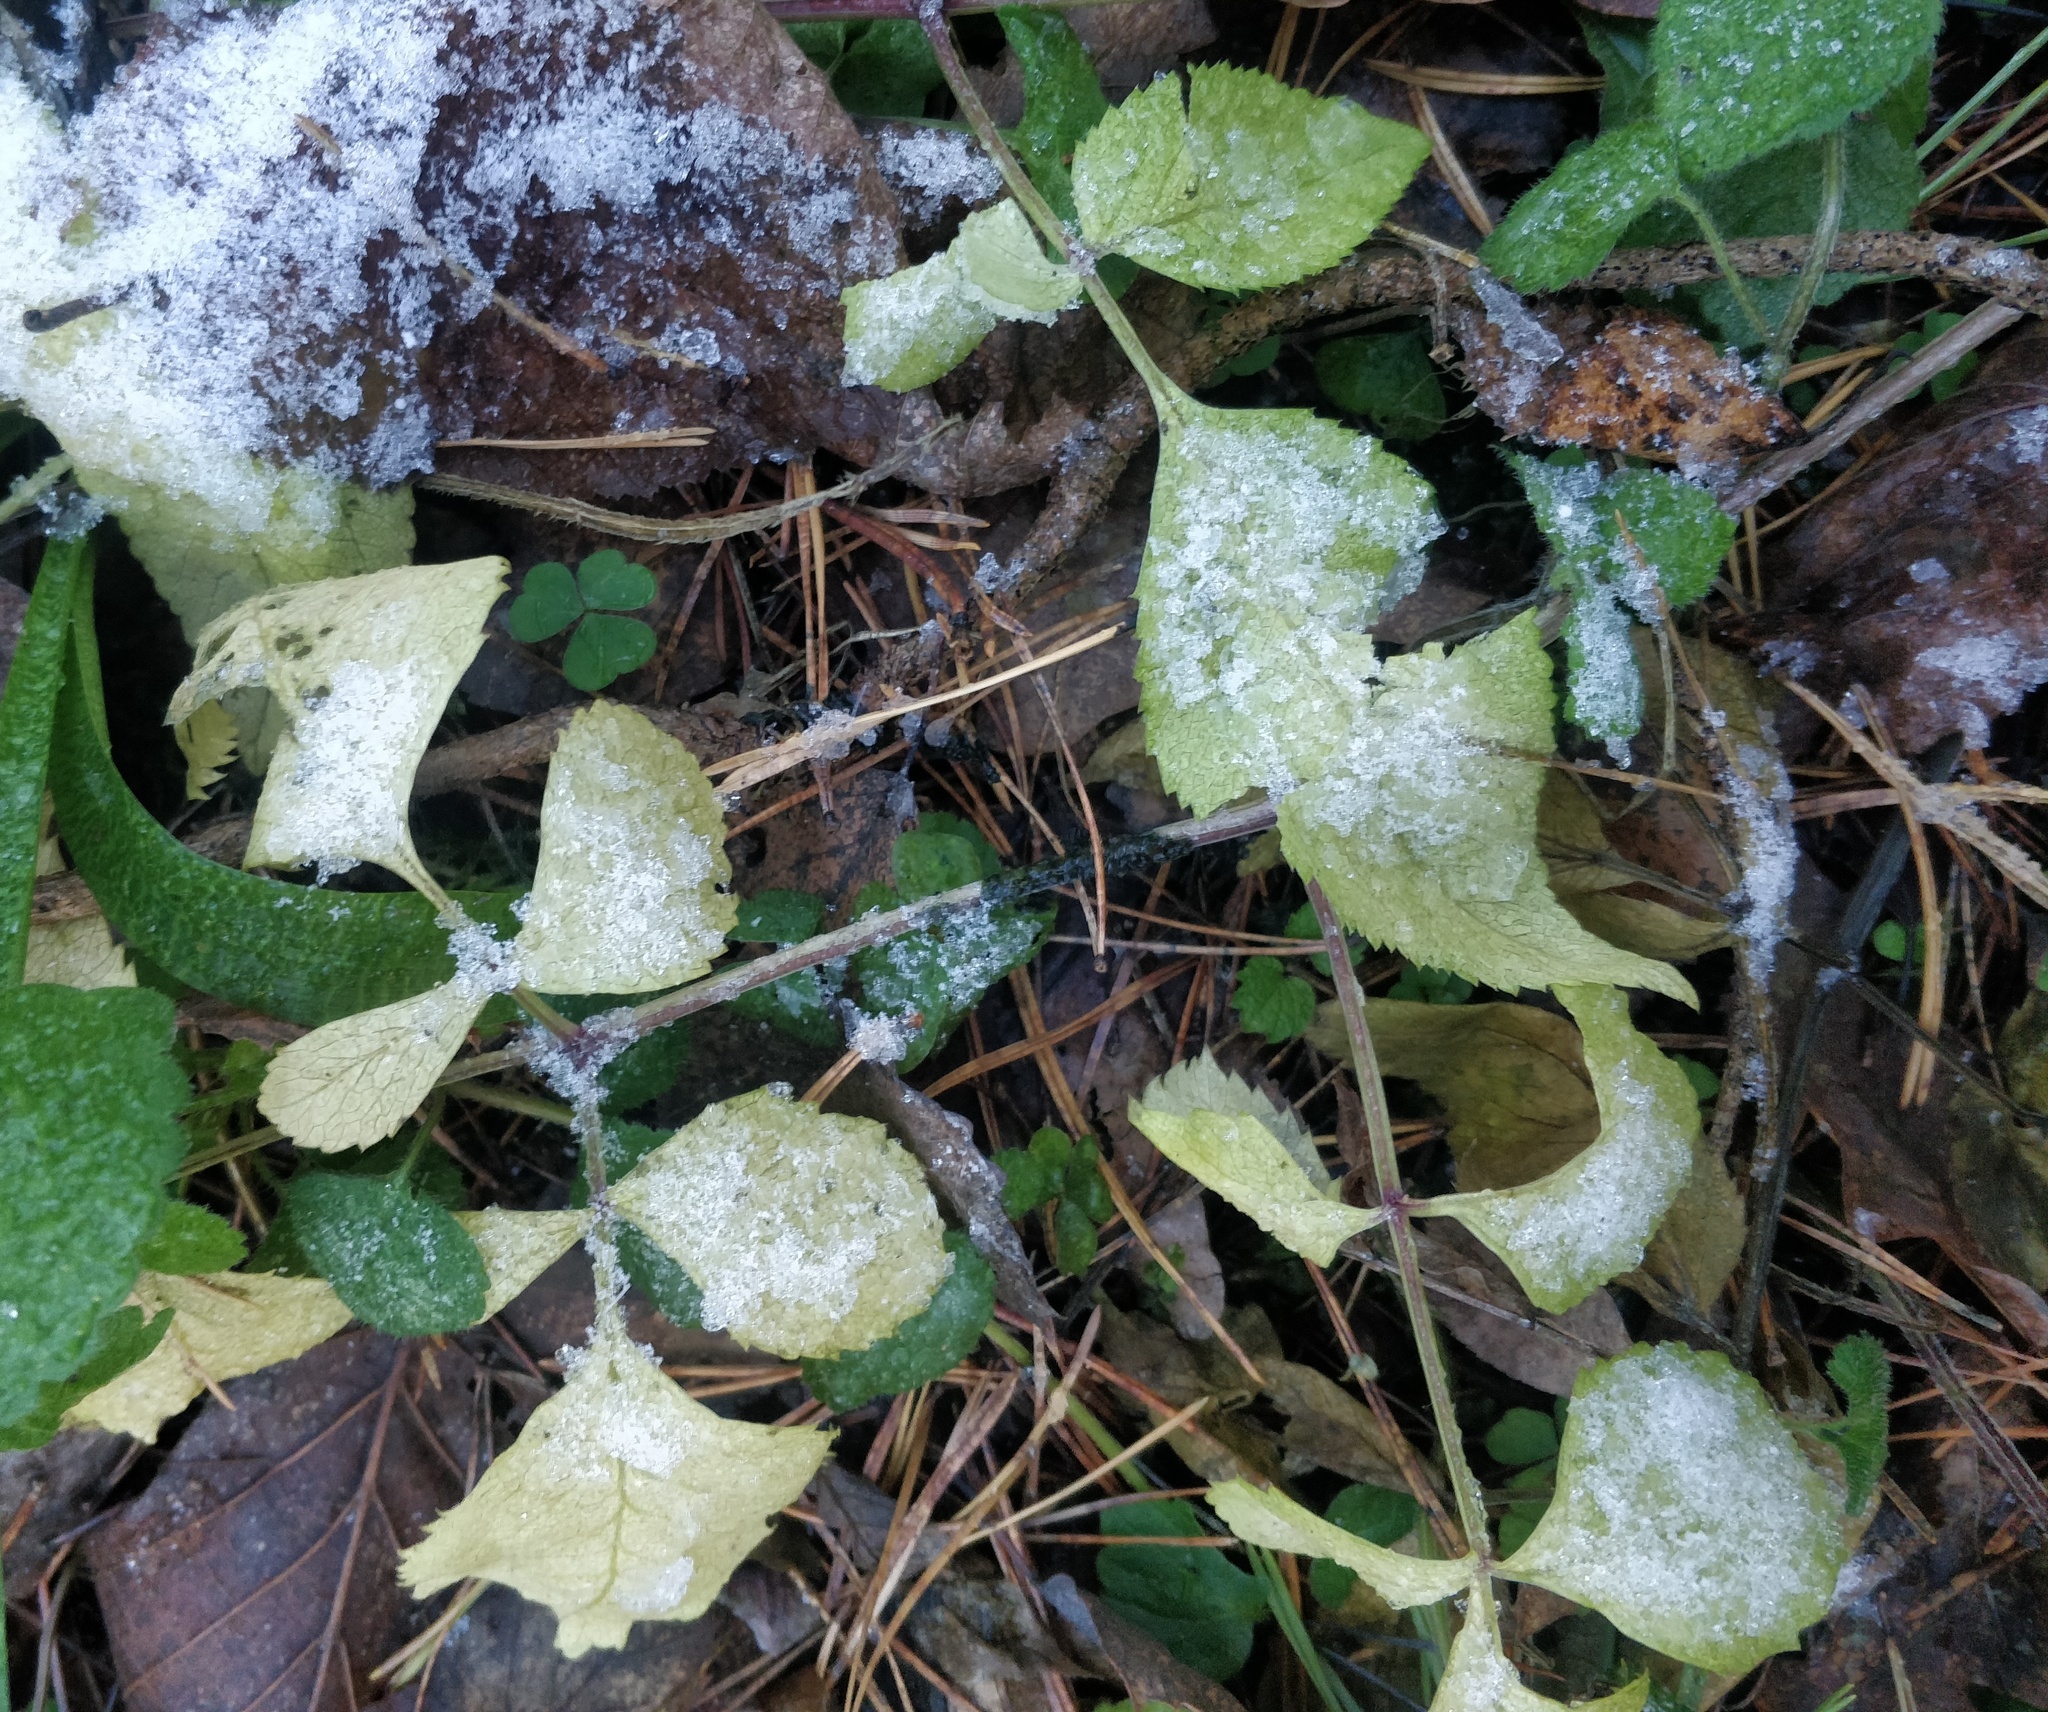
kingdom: Plantae
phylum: Tracheophyta
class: Magnoliopsida
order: Apiales
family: Apiaceae
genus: Angelica
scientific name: Angelica sylvestris
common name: Wild angelica
